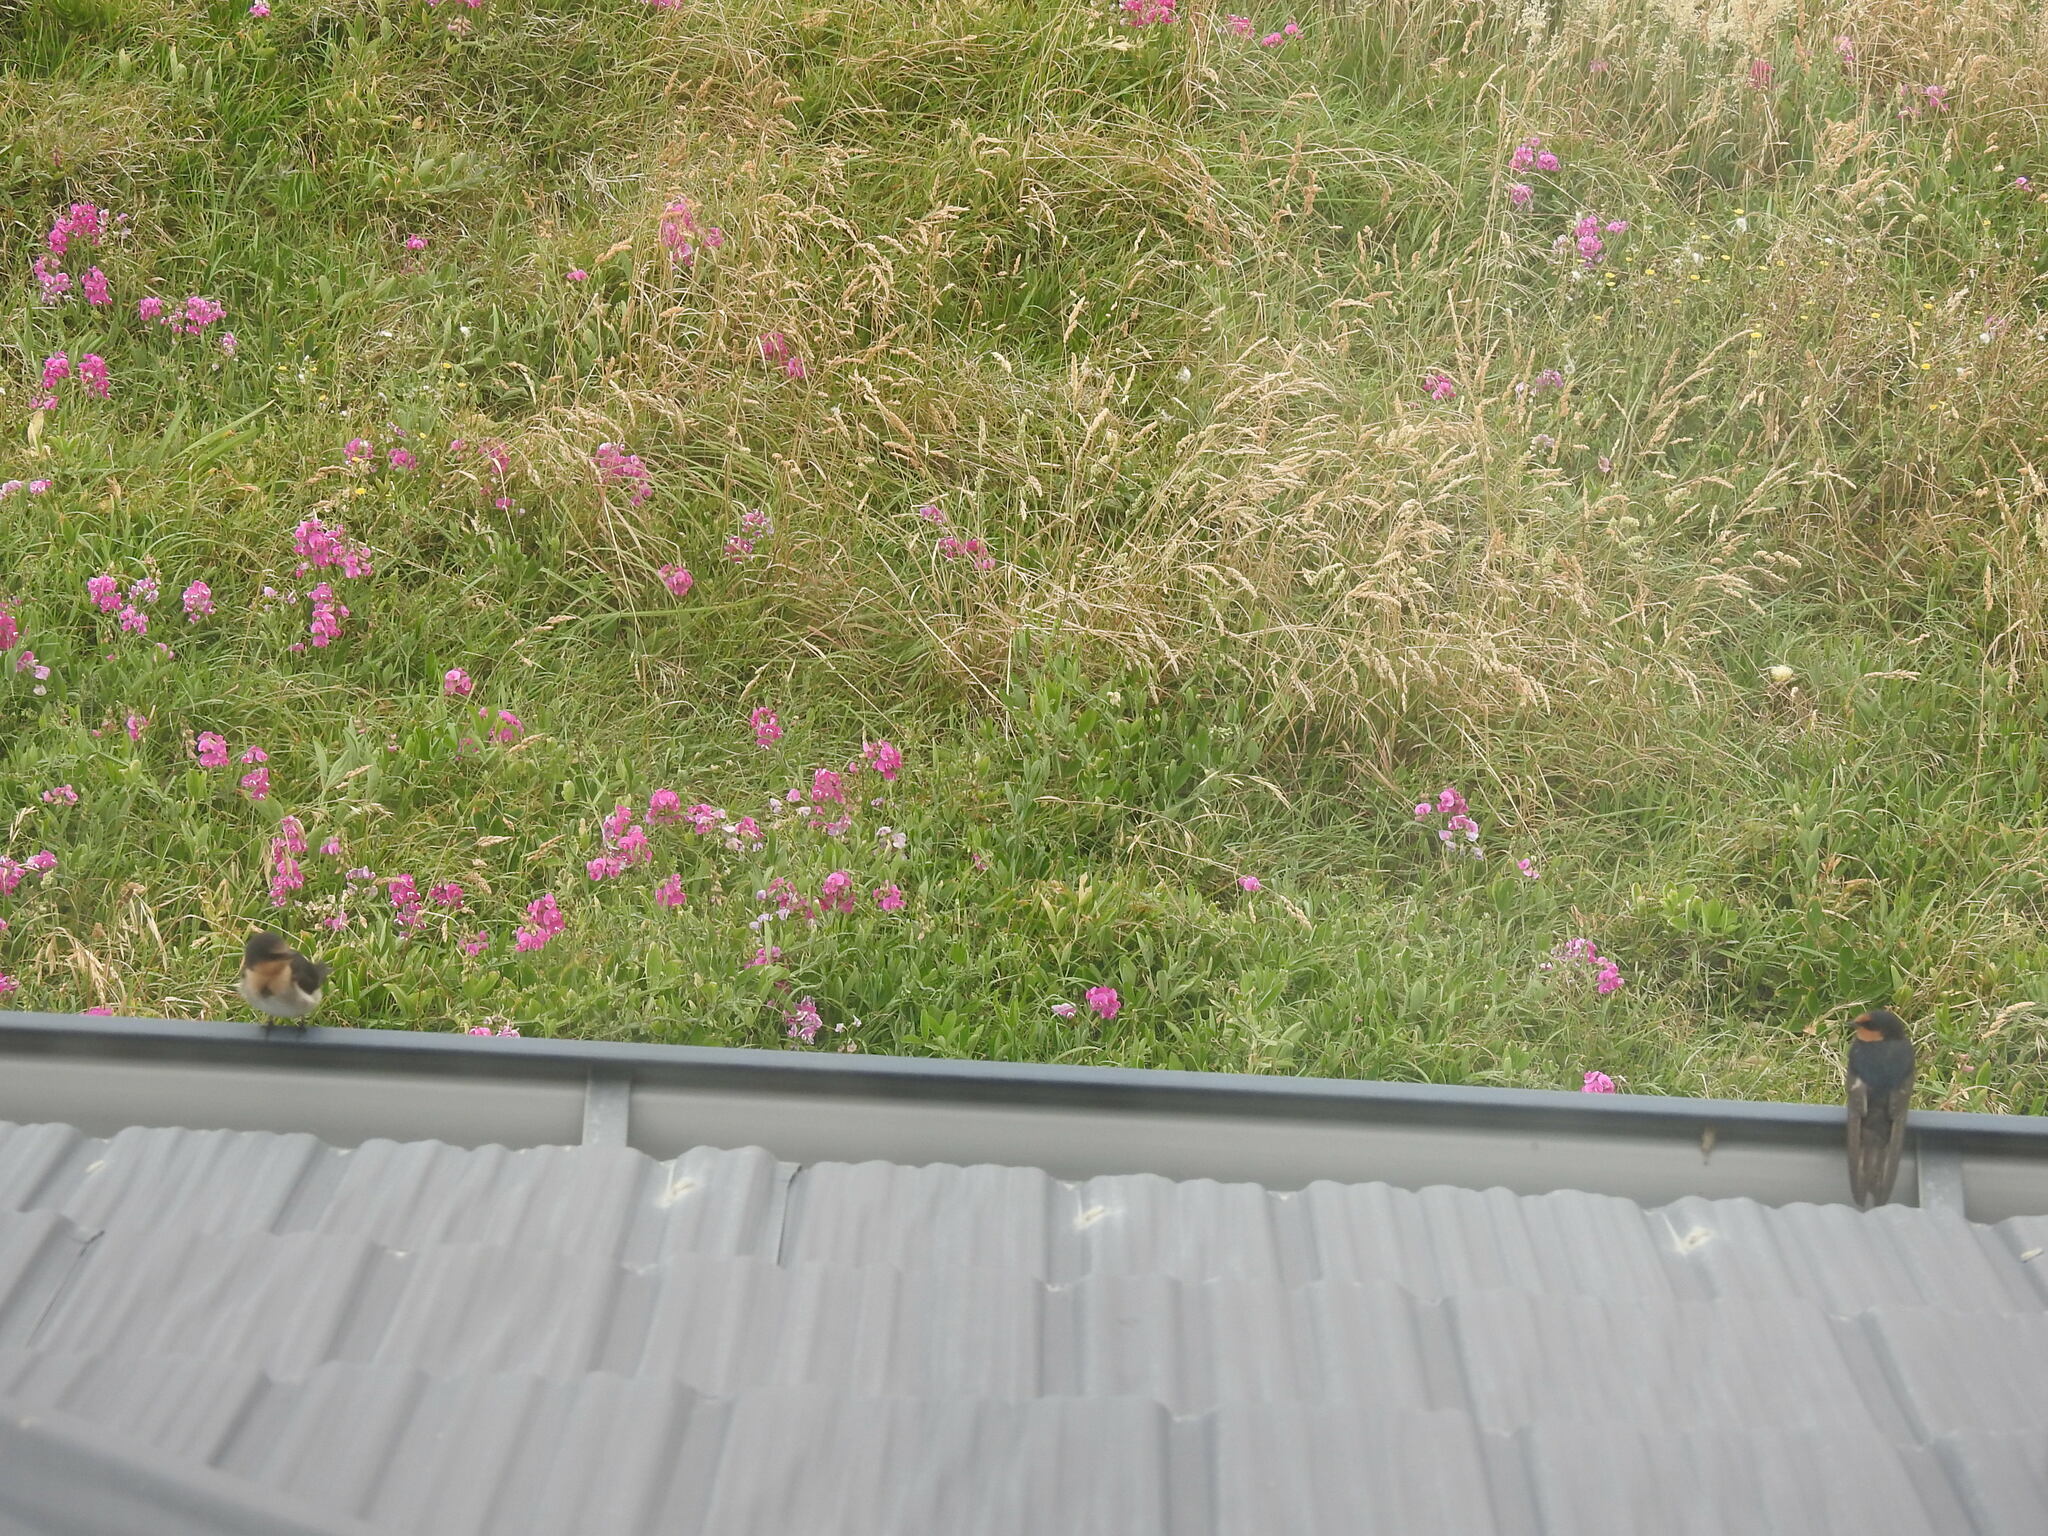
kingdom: Animalia
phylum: Chordata
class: Aves
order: Passeriformes
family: Hirundinidae
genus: Hirundo
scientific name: Hirundo neoxena
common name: Welcome swallow
